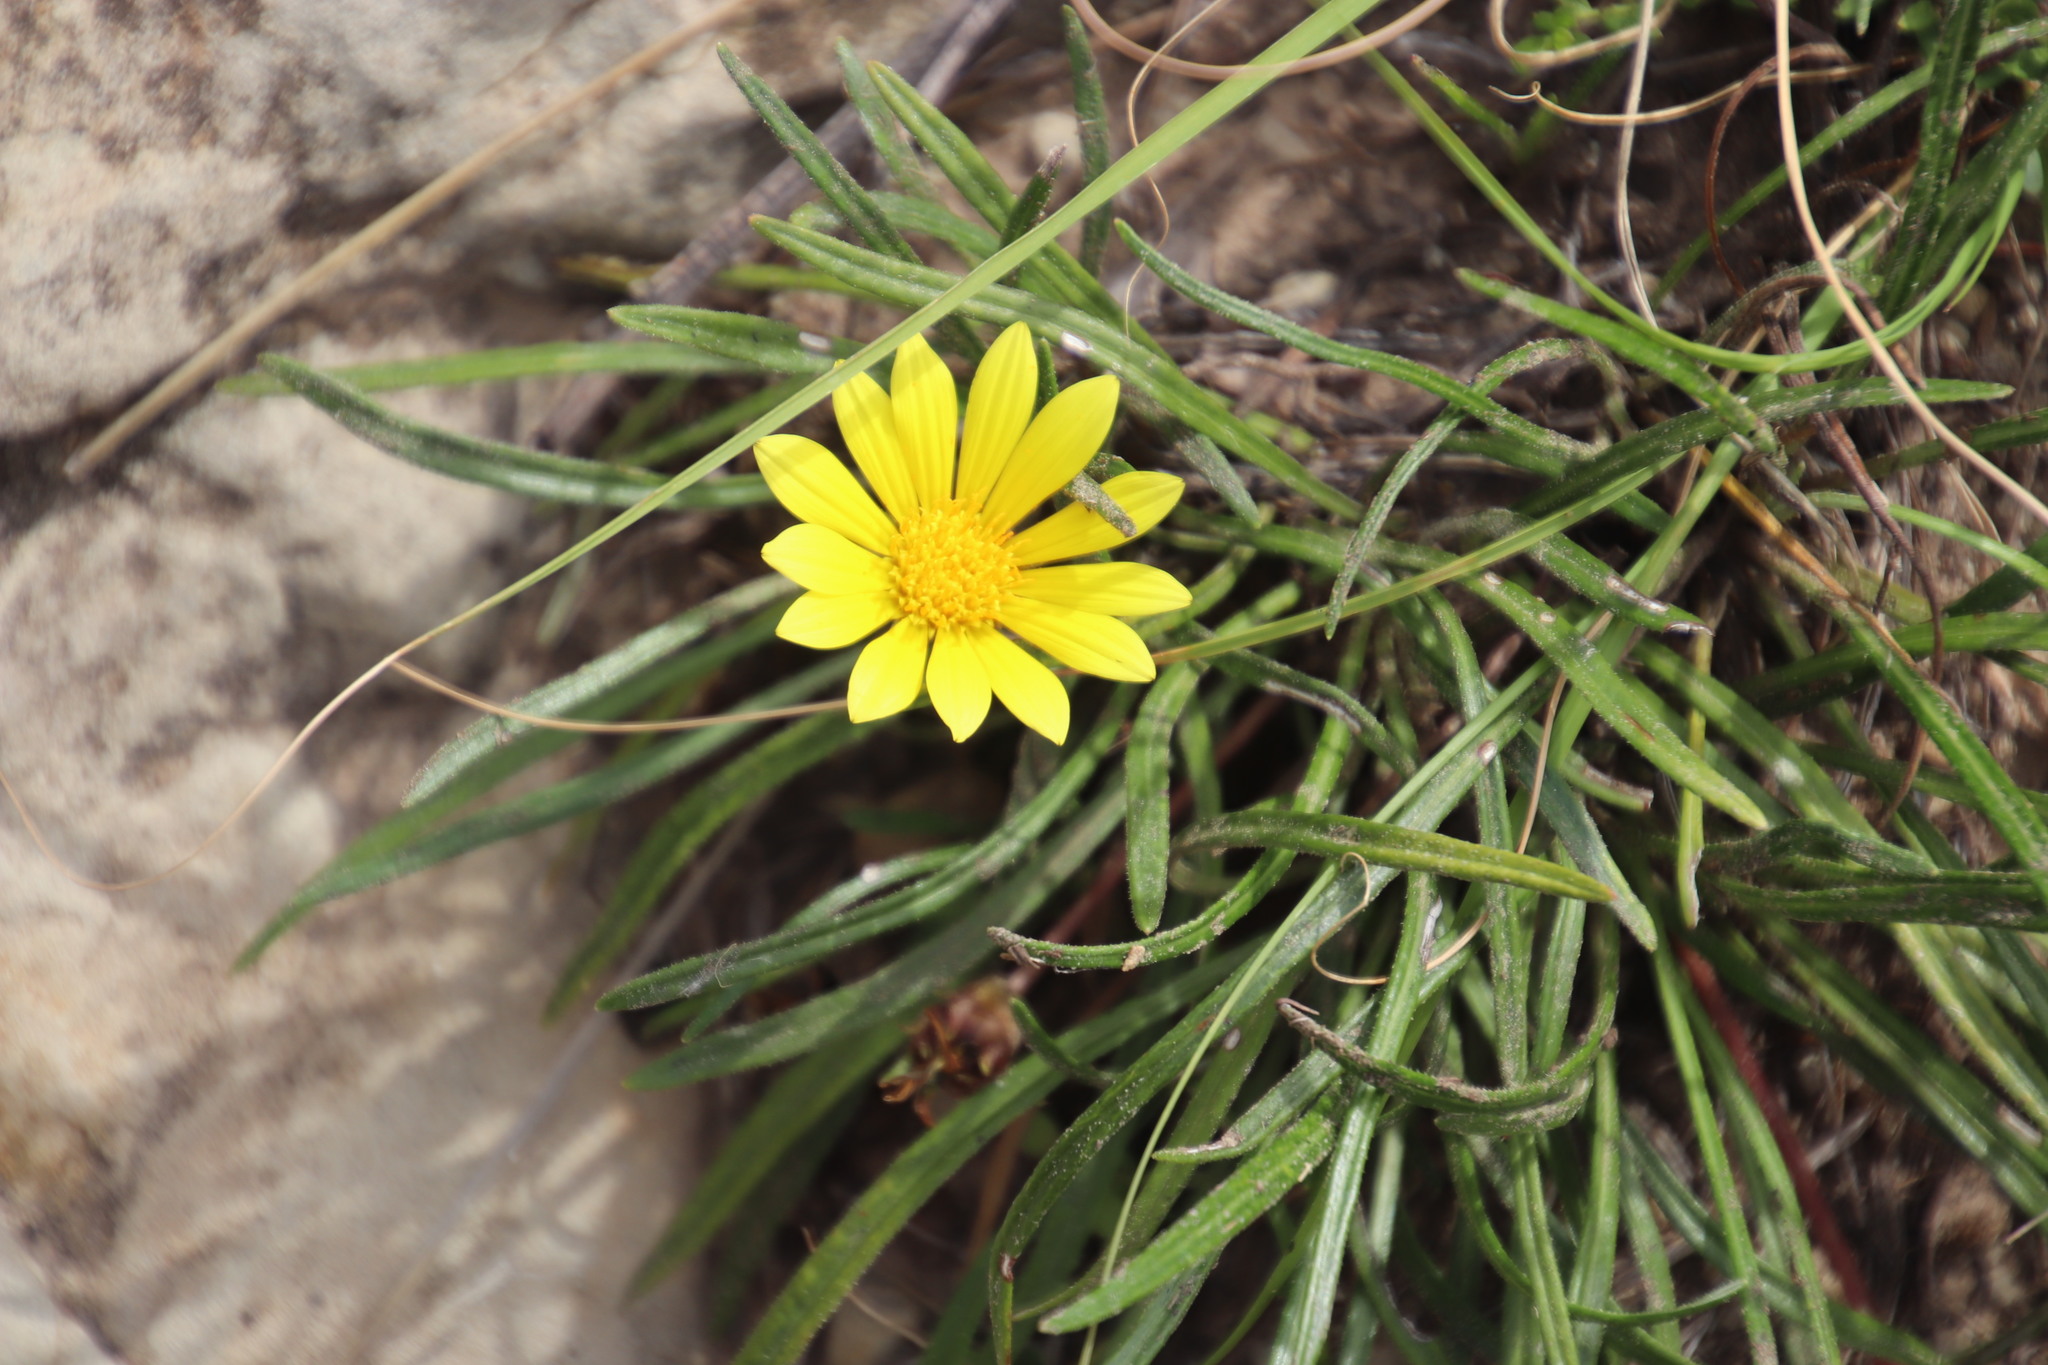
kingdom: Plantae
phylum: Tracheophyta
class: Magnoliopsida
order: Asterales
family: Asteraceae
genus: Gazania
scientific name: Gazania krebsiana
